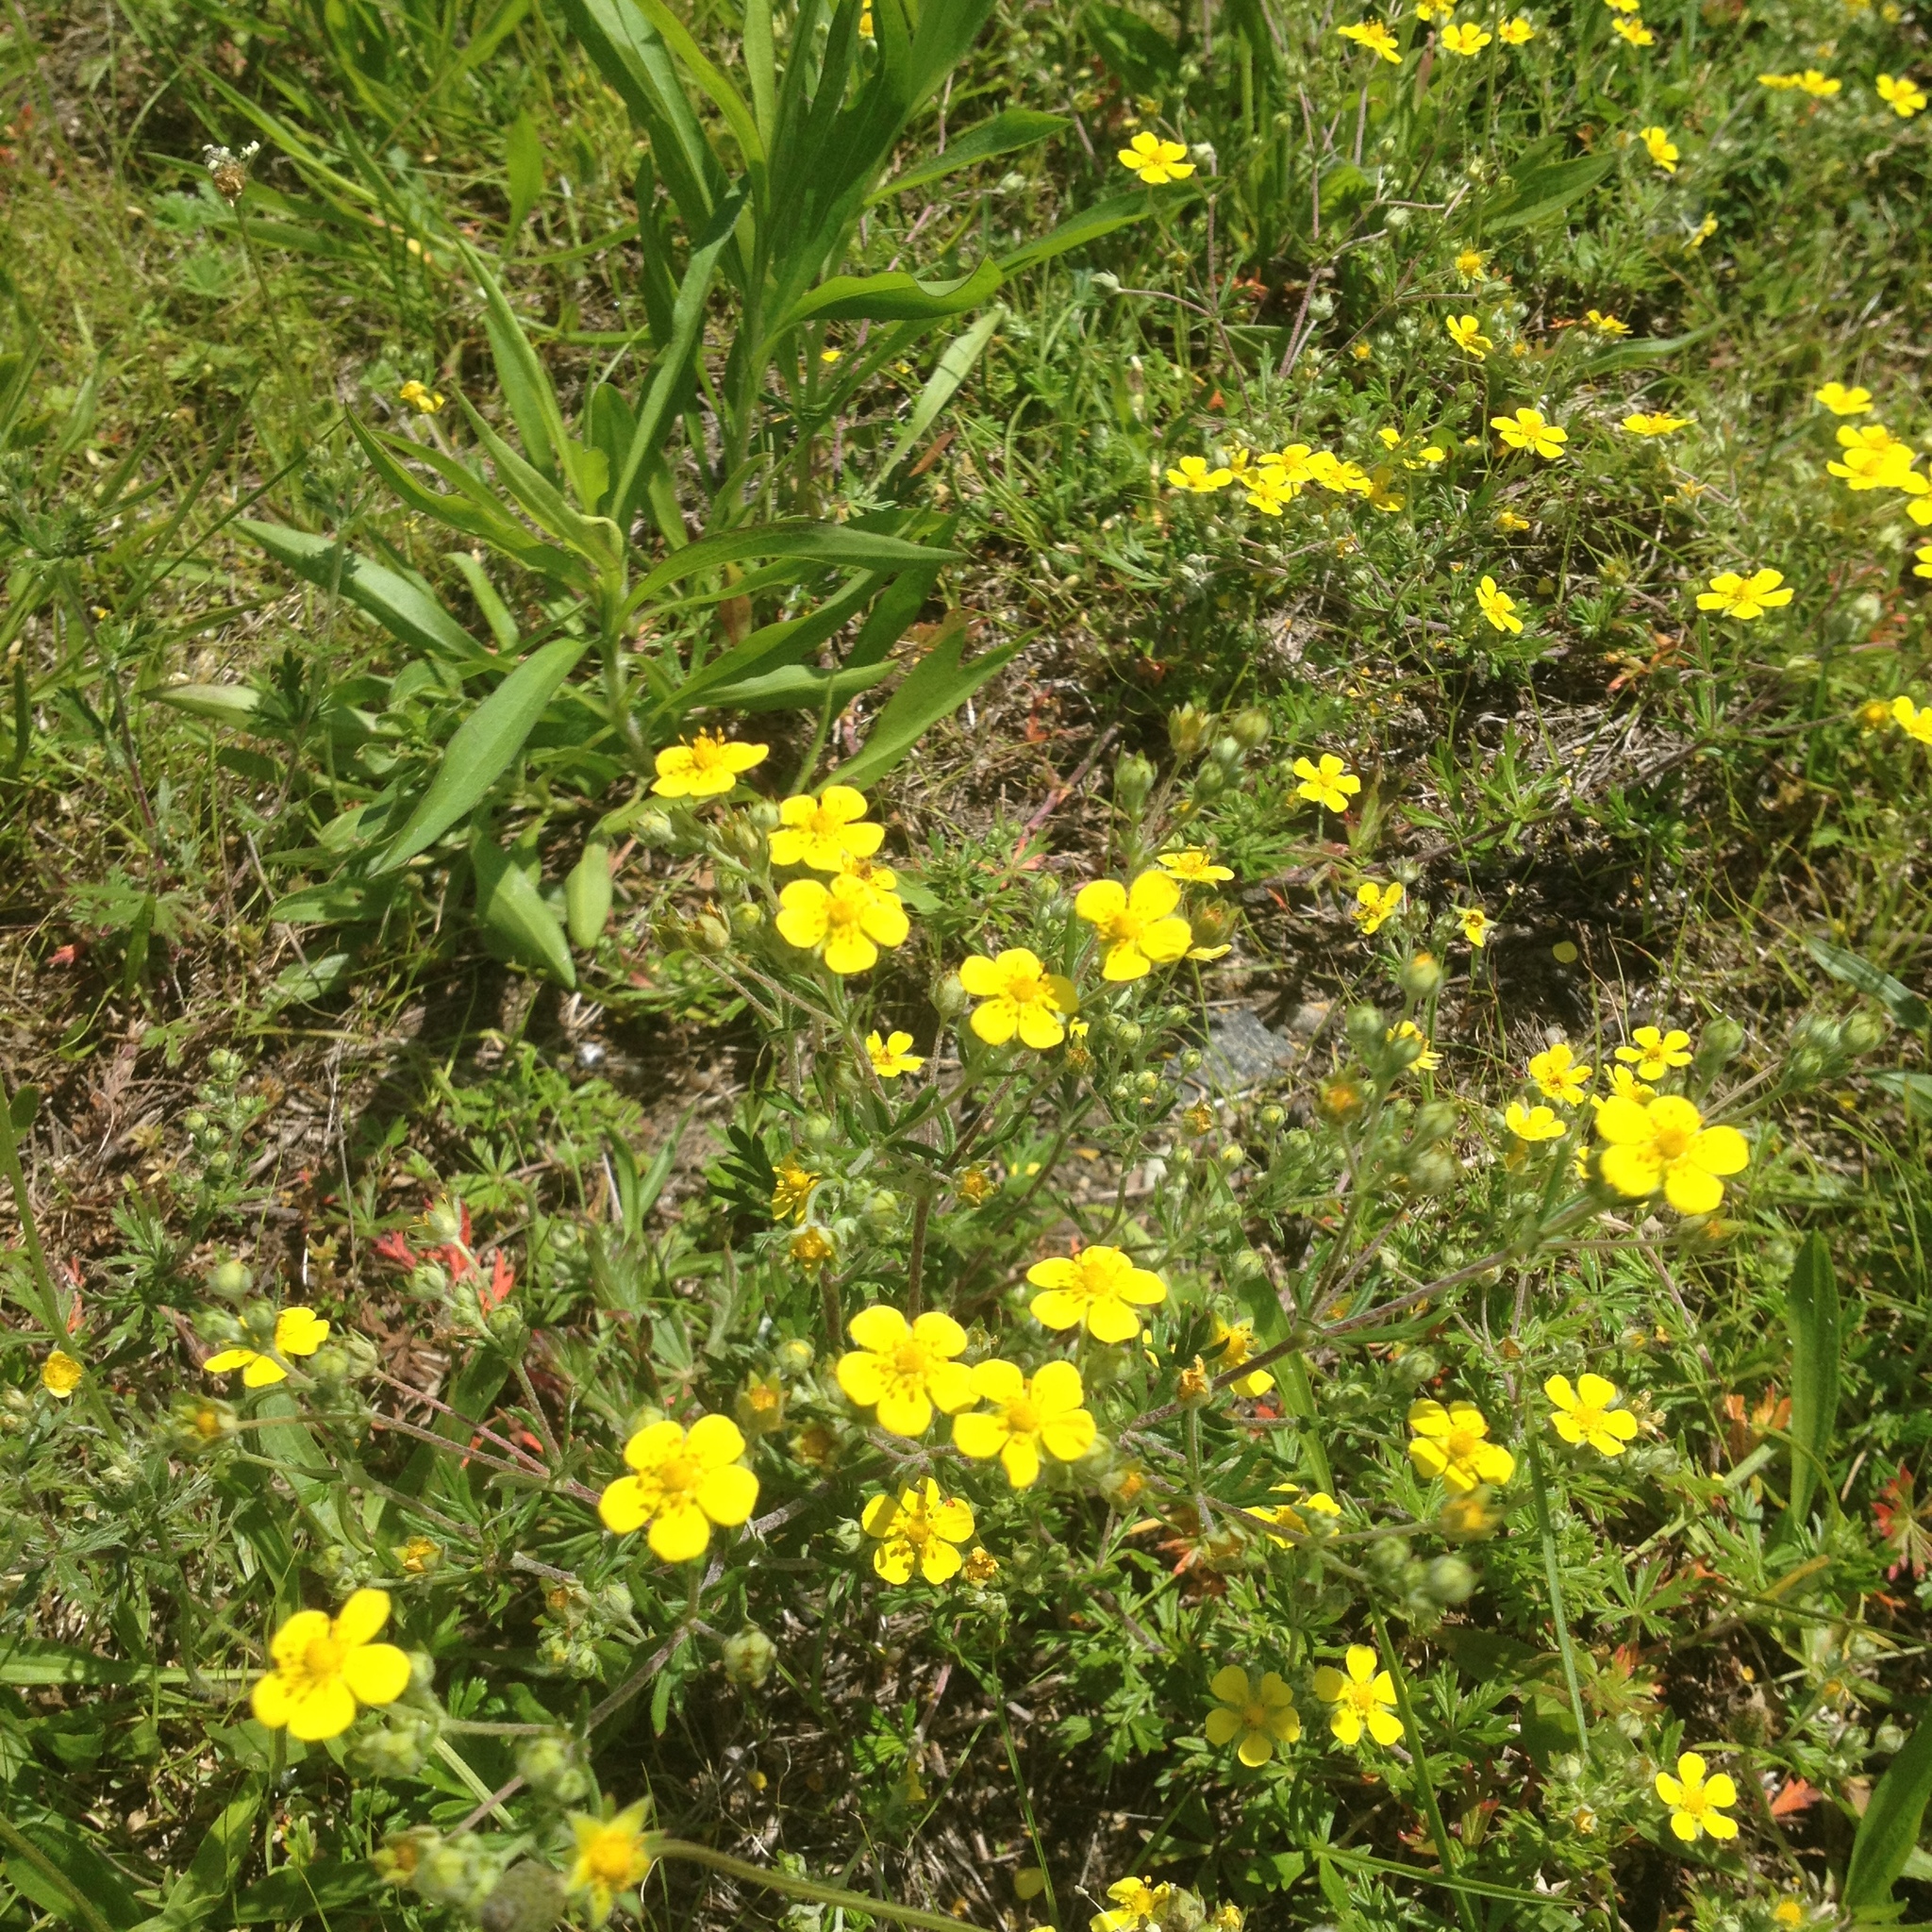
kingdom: Plantae
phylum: Tracheophyta
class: Magnoliopsida
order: Rosales
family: Rosaceae
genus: Potentilla
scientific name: Potentilla argentea
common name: Hoary cinquefoil
